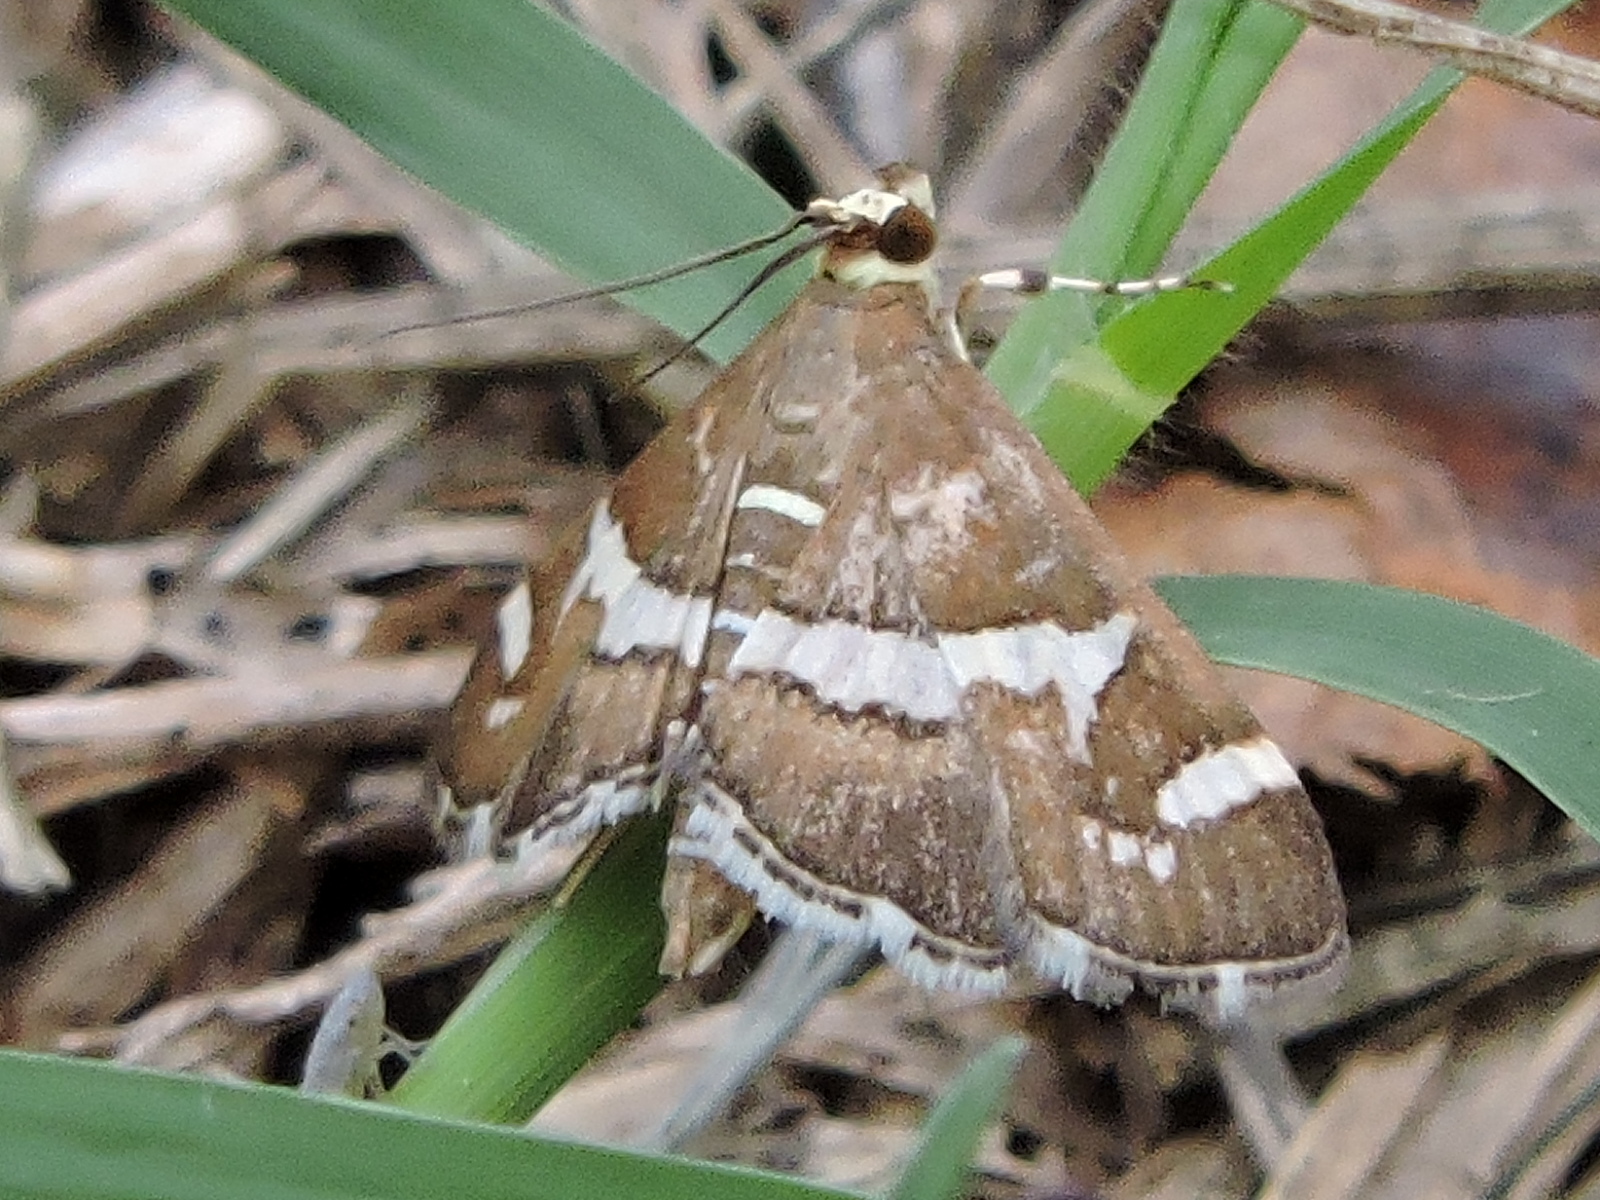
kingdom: Animalia
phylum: Arthropoda
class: Insecta
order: Lepidoptera
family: Crambidae
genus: Spoladea
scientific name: Spoladea recurvalis
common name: Beet webworm moth
